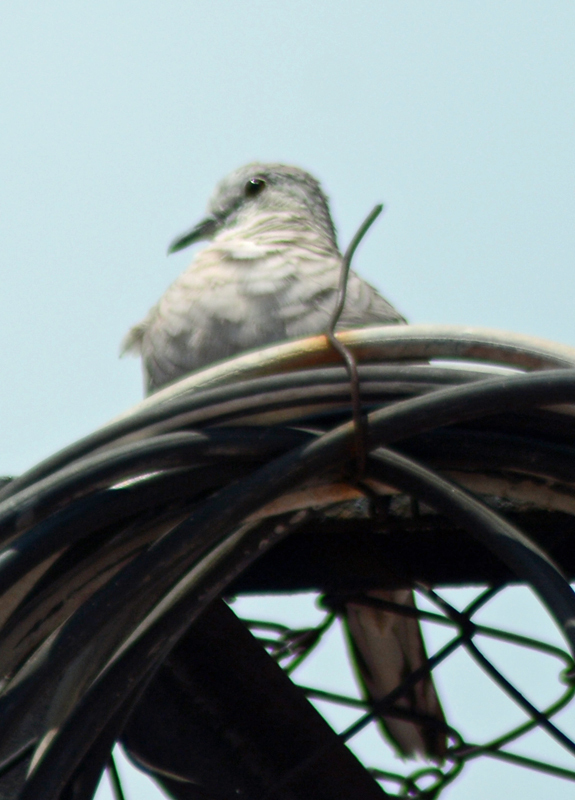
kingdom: Animalia
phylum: Chordata
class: Aves
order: Columbiformes
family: Columbidae
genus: Columbina
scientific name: Columbina inca
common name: Inca dove
